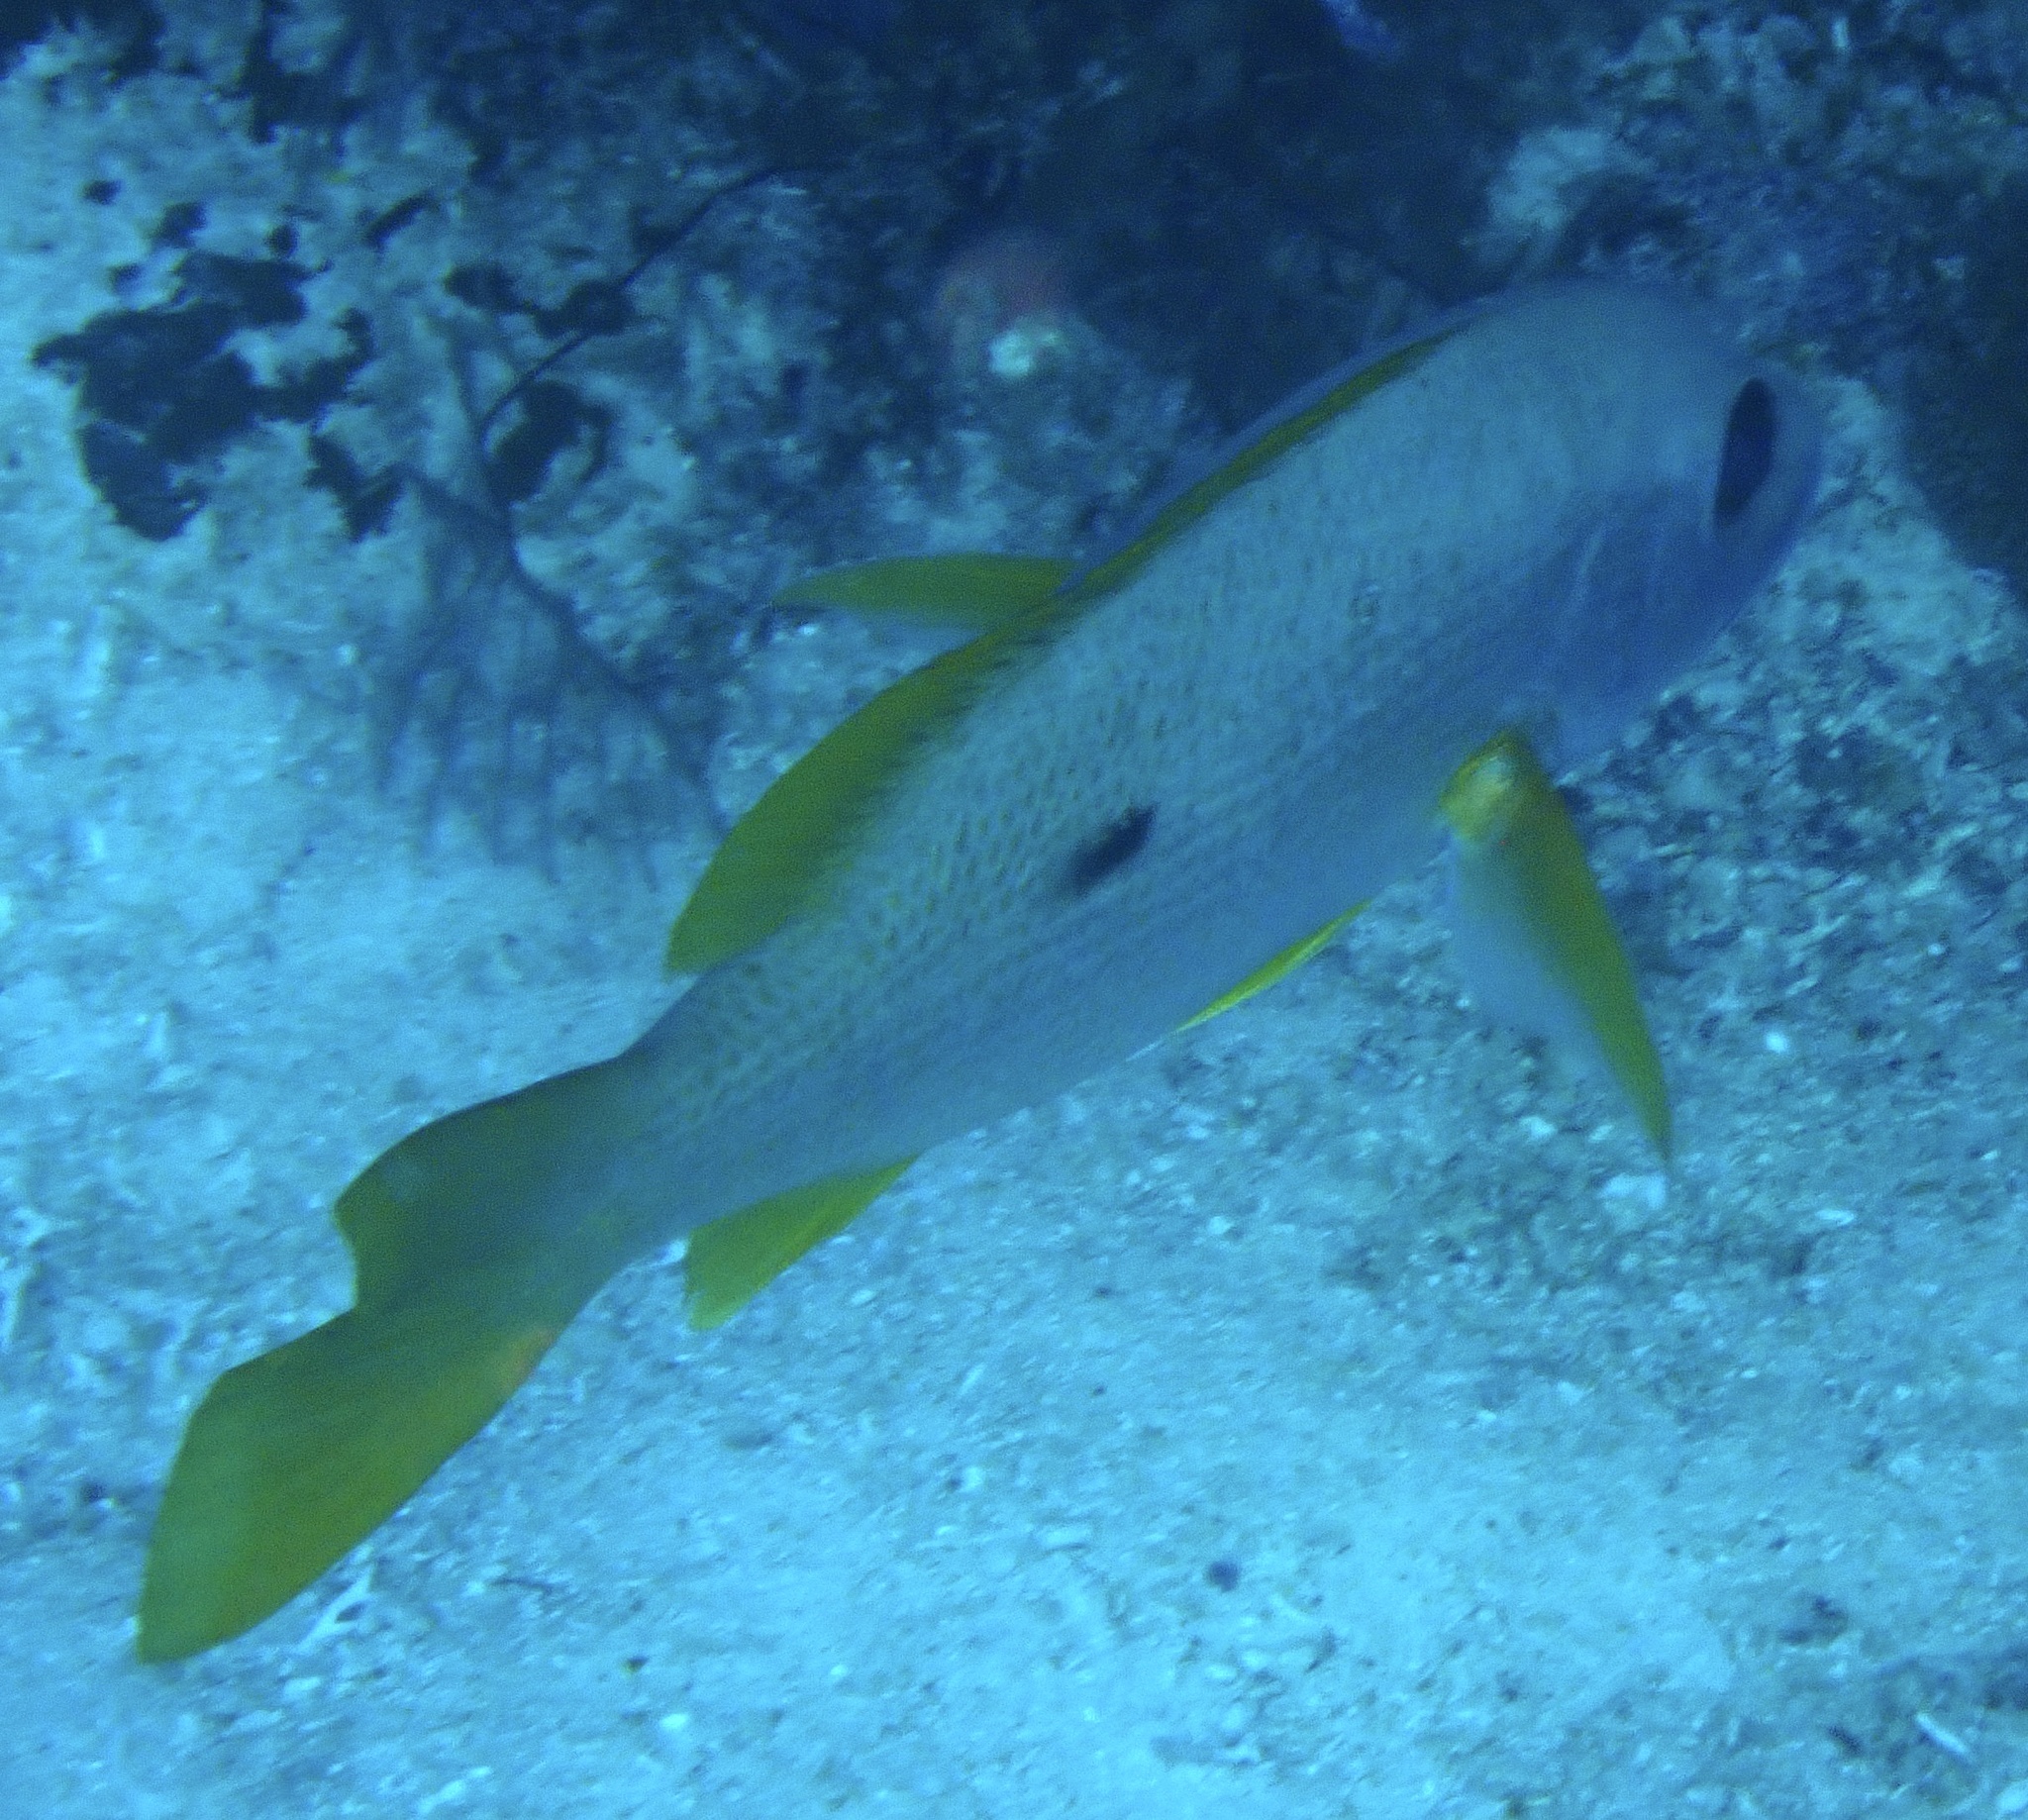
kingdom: Animalia
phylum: Chordata
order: Perciformes
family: Lutjanidae
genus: Lutjanus
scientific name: Lutjanus monostigma
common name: Onespot snapper
